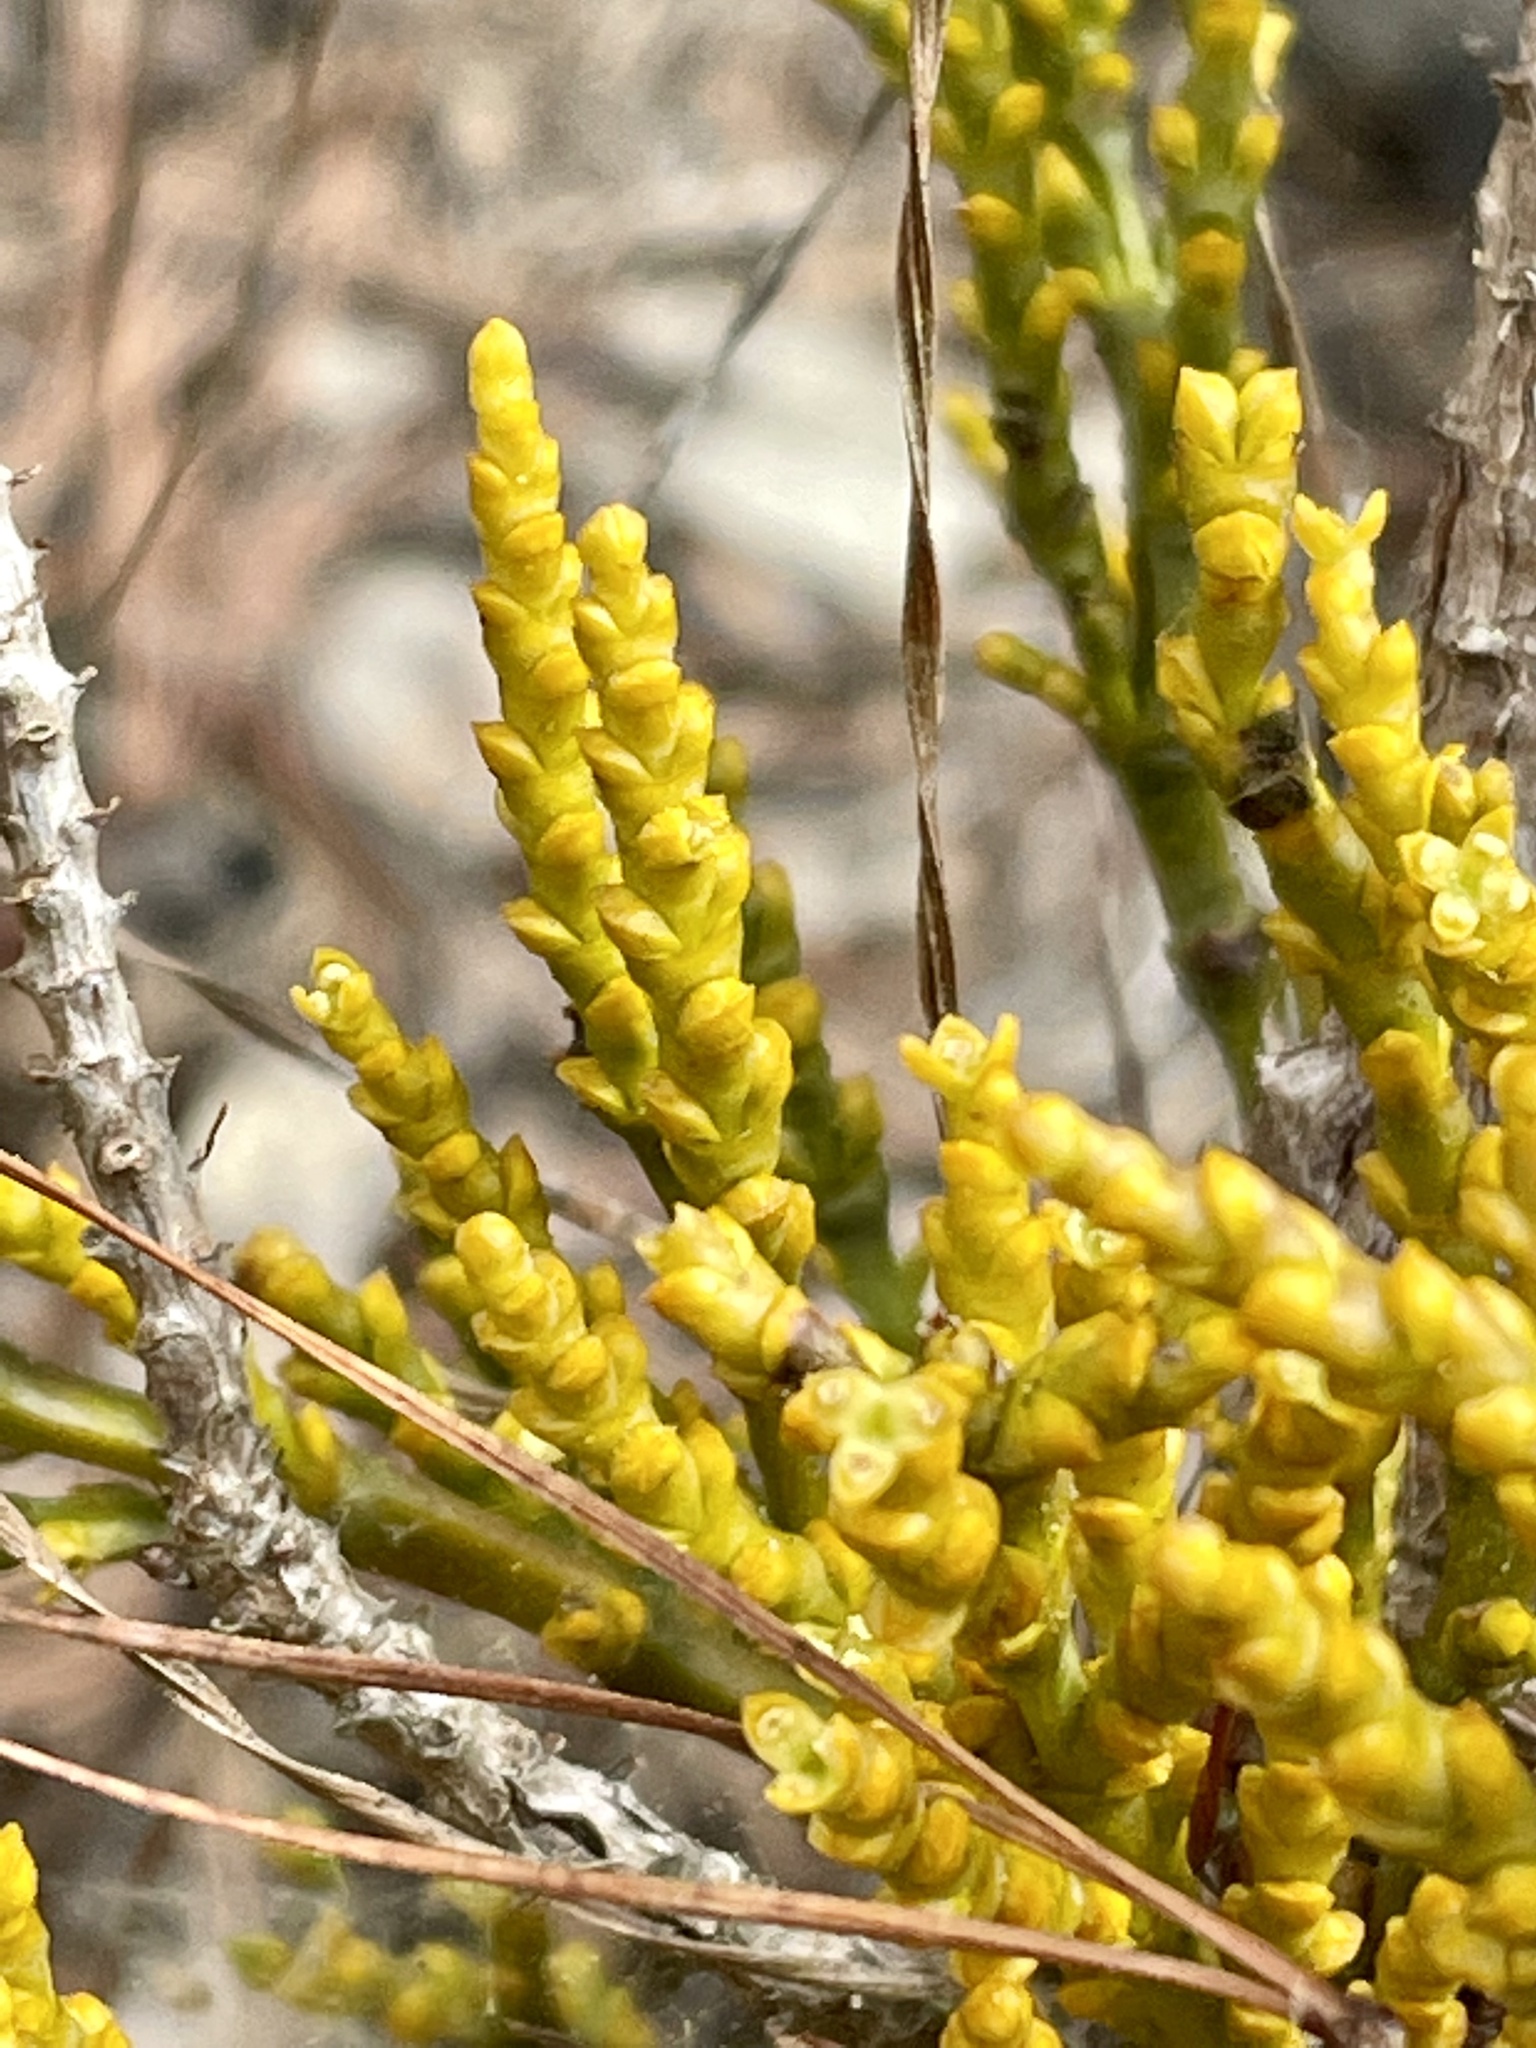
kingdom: Plantae
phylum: Tracheophyta
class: Magnoliopsida
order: Santalales
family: Viscaceae
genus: Arceuthobium
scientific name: Arceuthobium campylopodum
